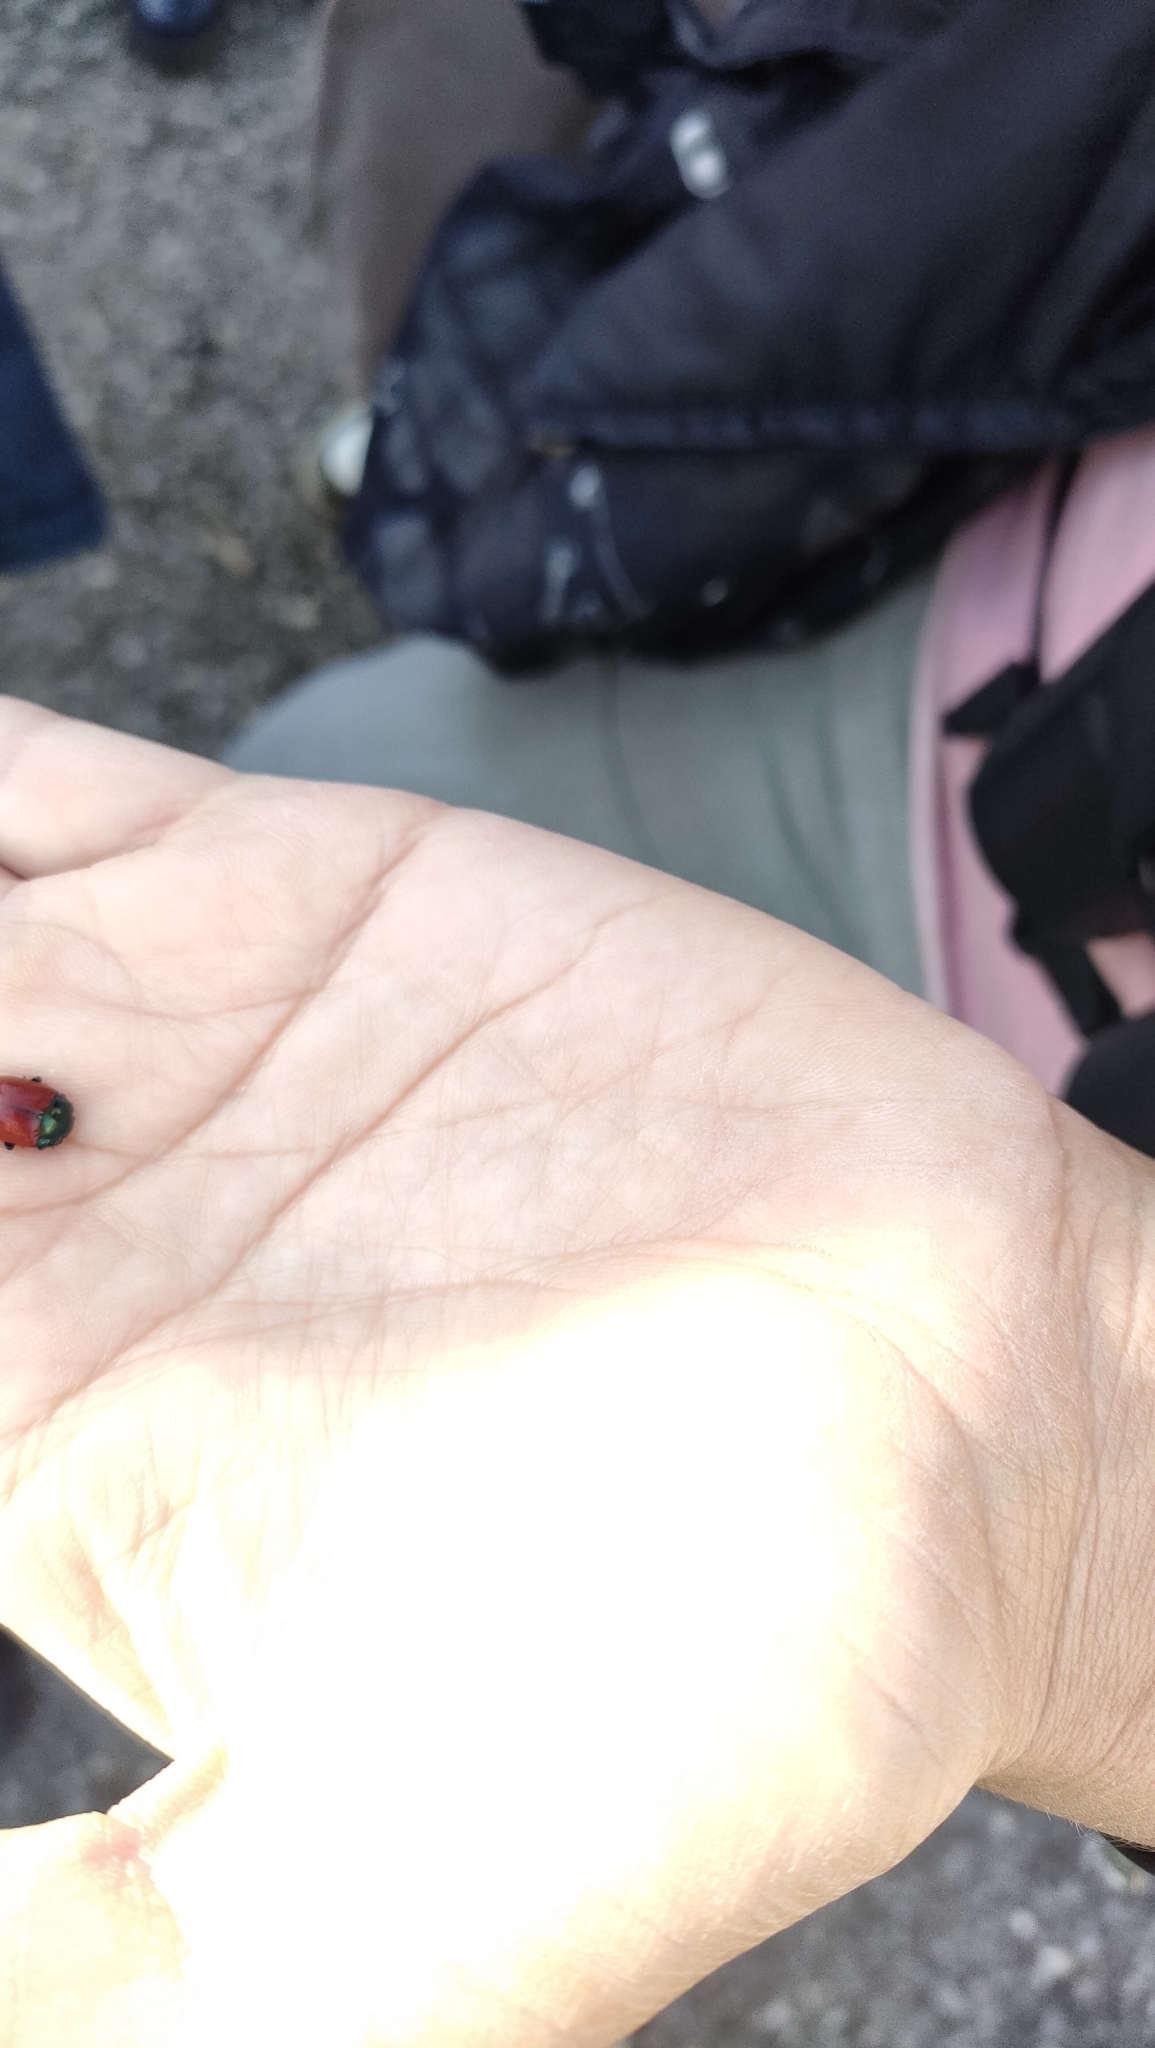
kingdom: Animalia
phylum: Arthropoda
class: Insecta
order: Coleoptera
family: Chrysomelidae
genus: Chrysolina
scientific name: Chrysolina grossa
